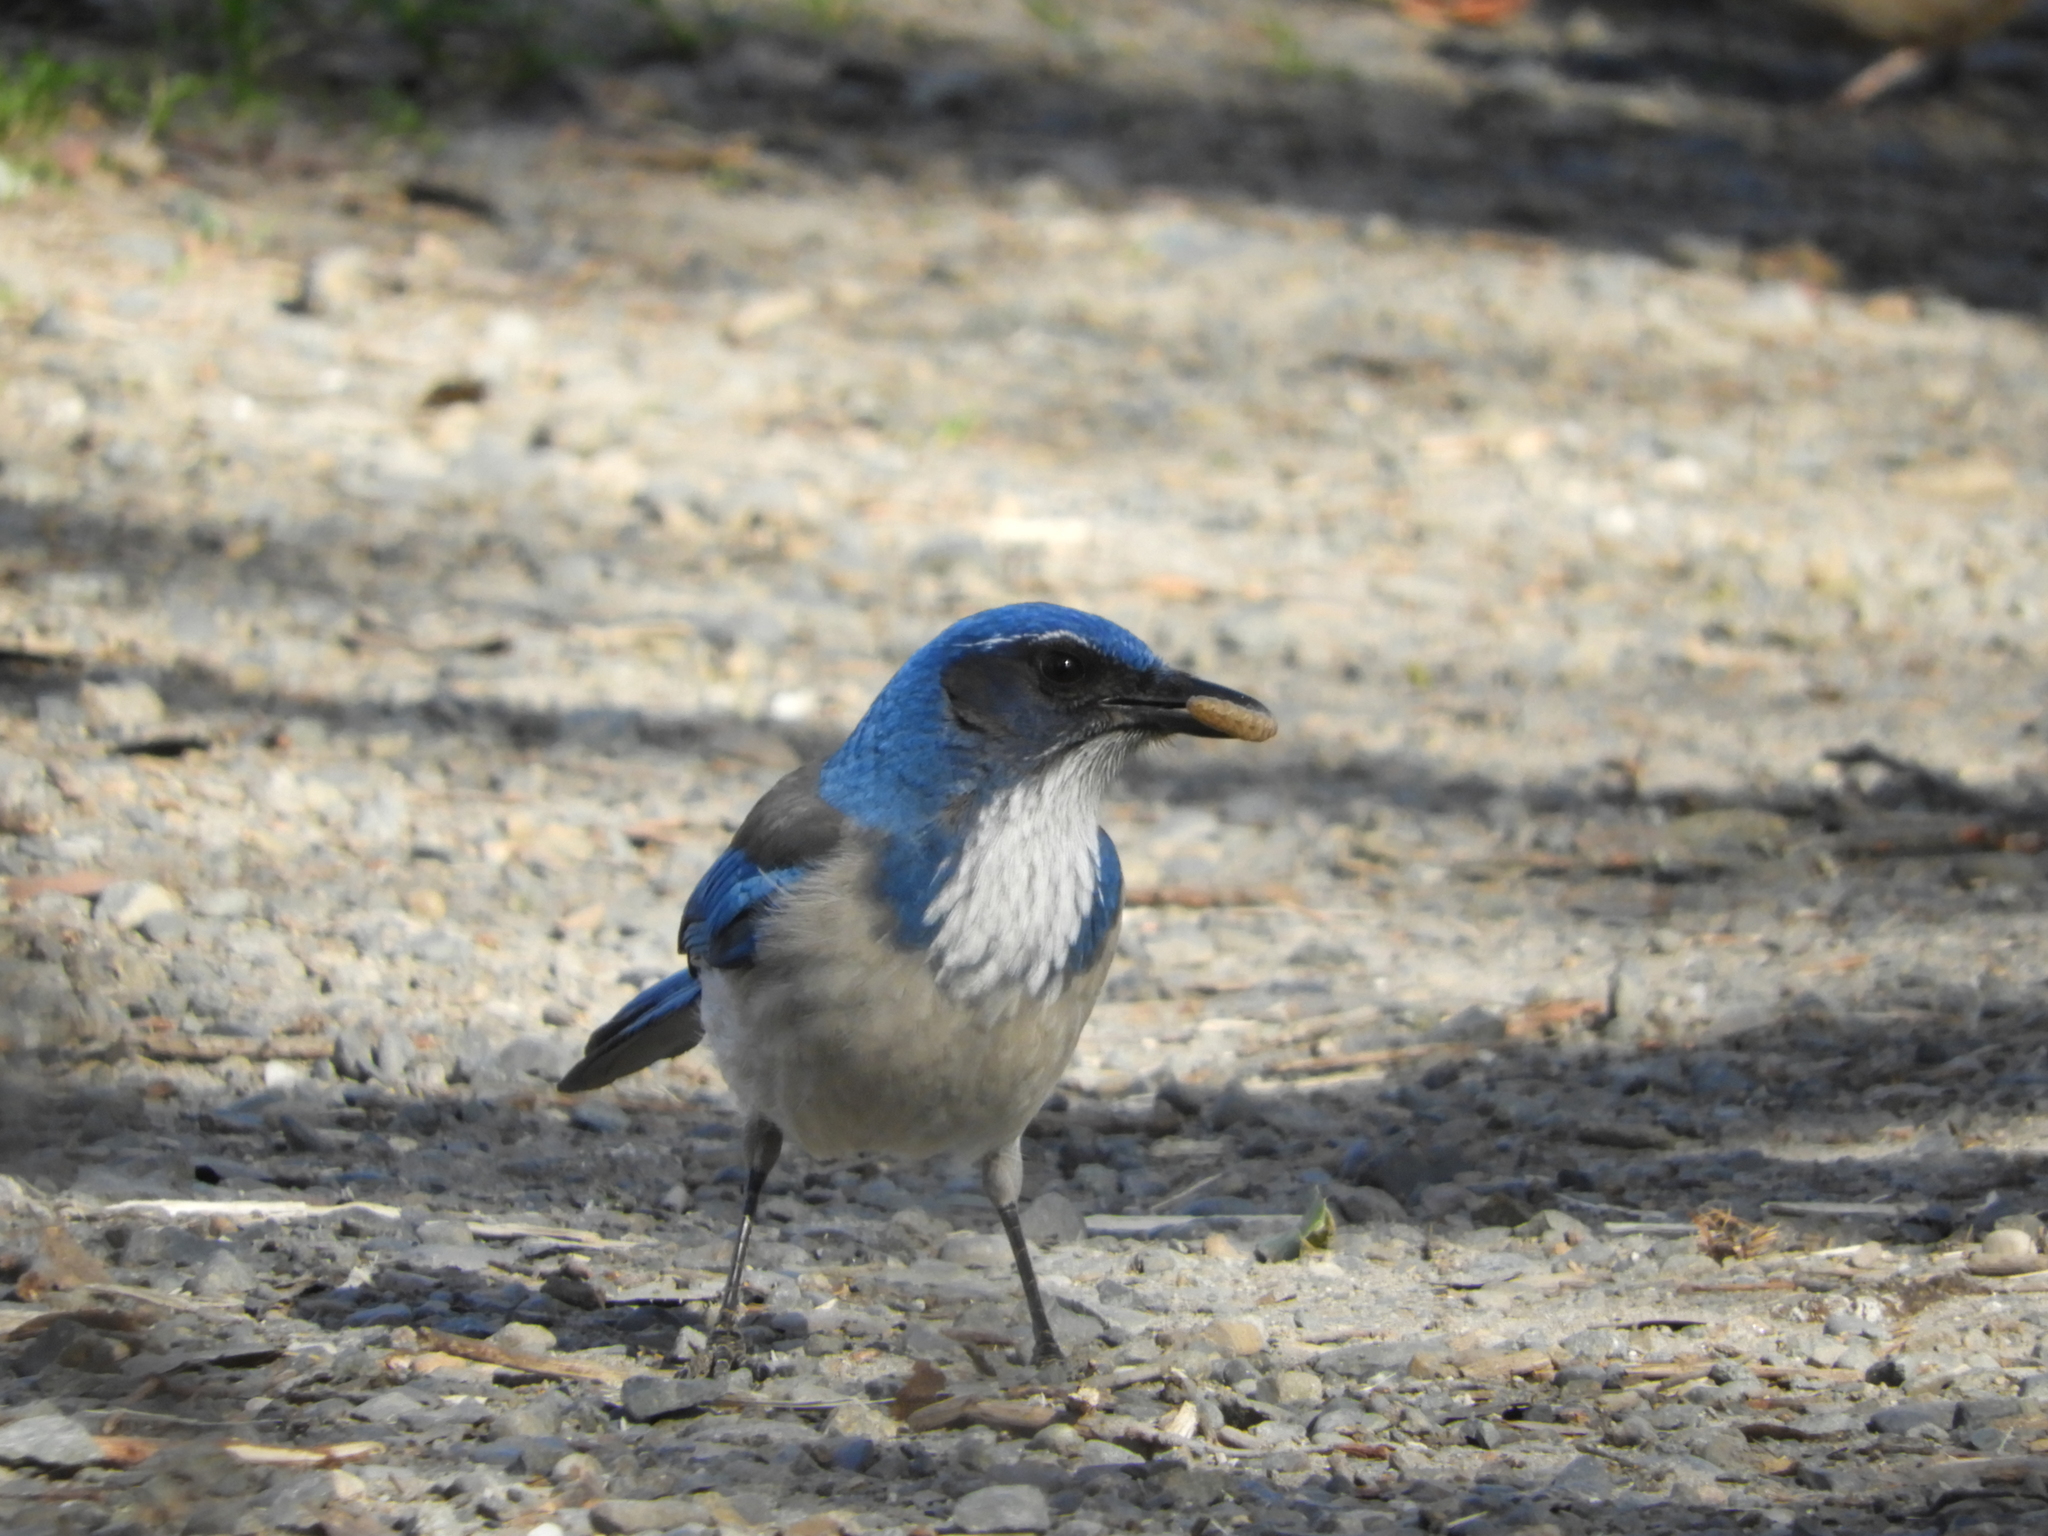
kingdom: Animalia
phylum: Chordata
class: Aves
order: Passeriformes
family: Corvidae
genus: Aphelocoma
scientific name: Aphelocoma californica
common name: California scrub-jay
